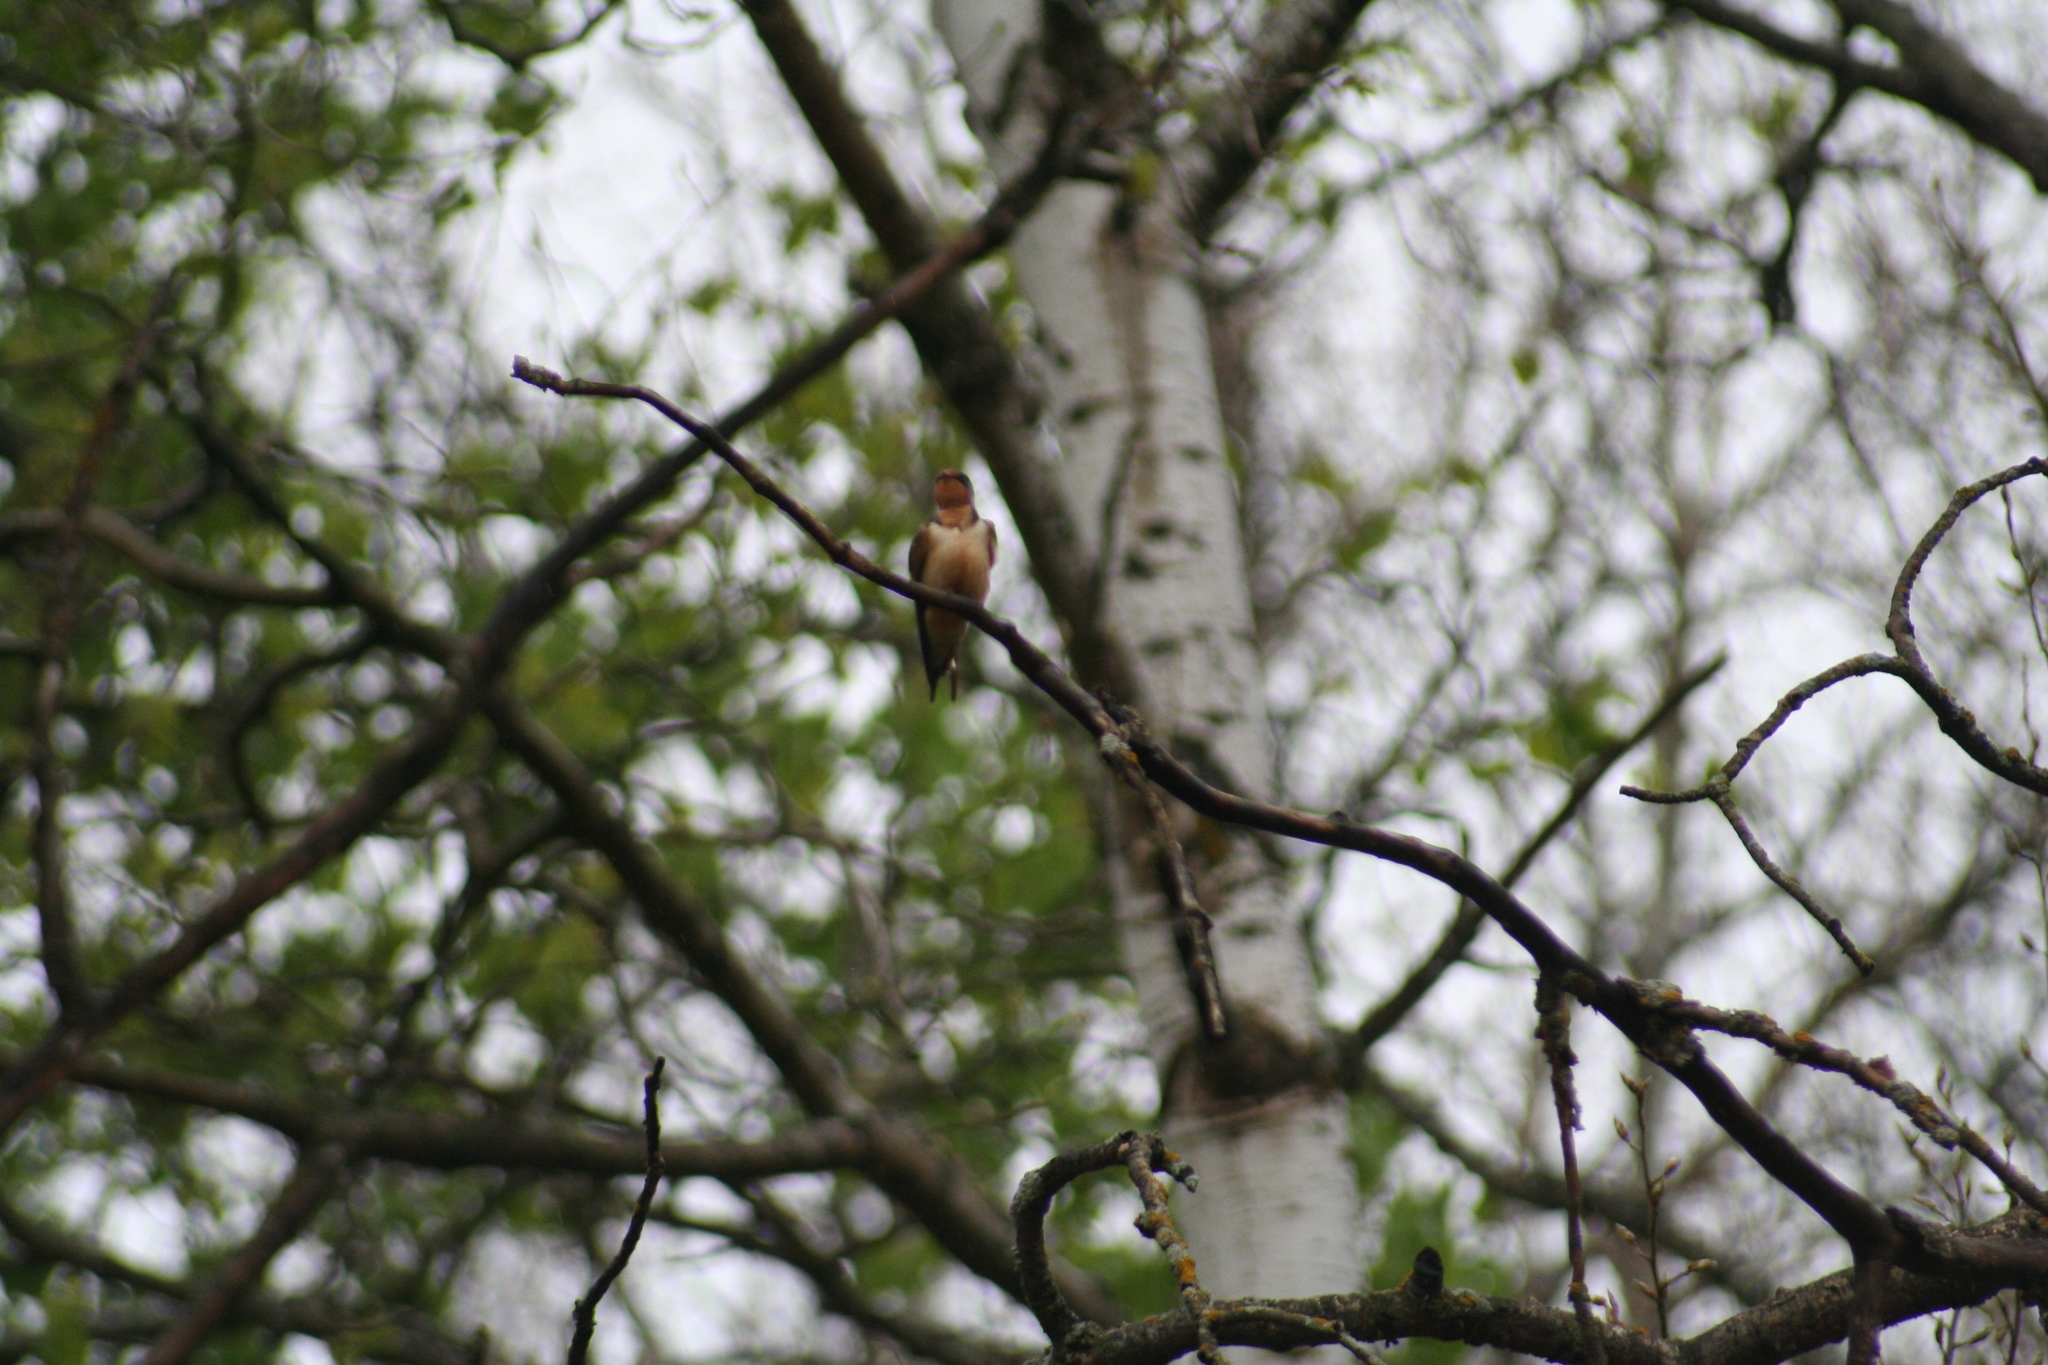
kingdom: Animalia
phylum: Chordata
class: Aves
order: Passeriformes
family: Hirundinidae
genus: Hirundo
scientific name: Hirundo rustica
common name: Barn swallow
